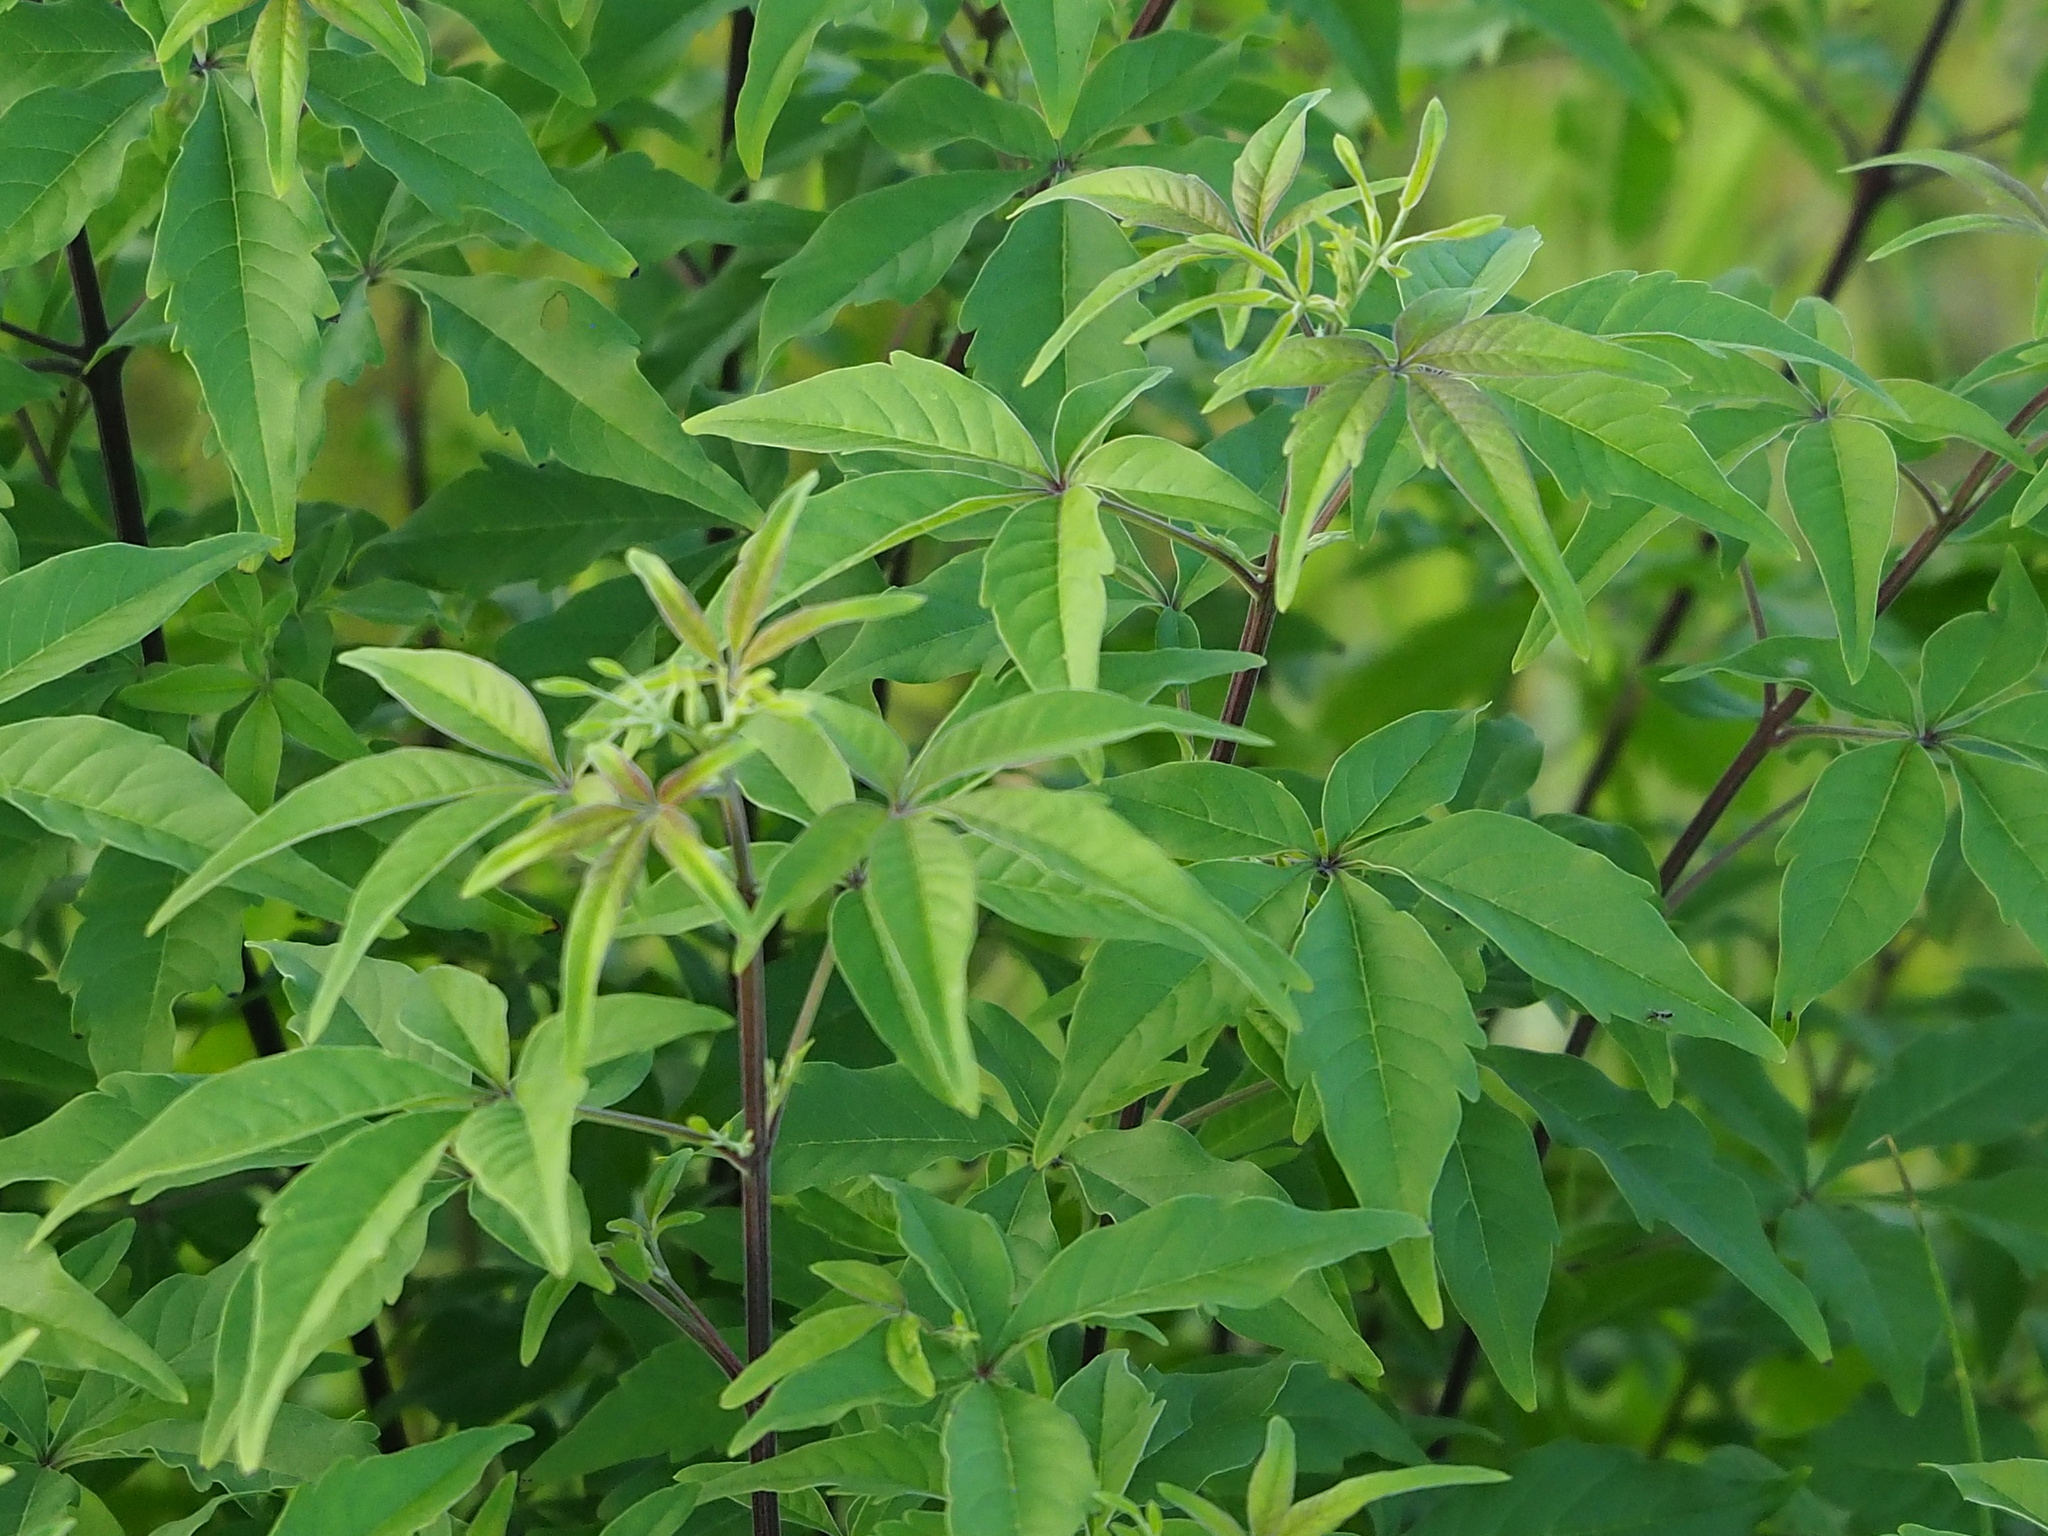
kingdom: Plantae
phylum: Tracheophyta
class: Magnoliopsida
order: Lamiales
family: Lamiaceae
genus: Vitex
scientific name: Vitex negundo
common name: Chinese chastetree
